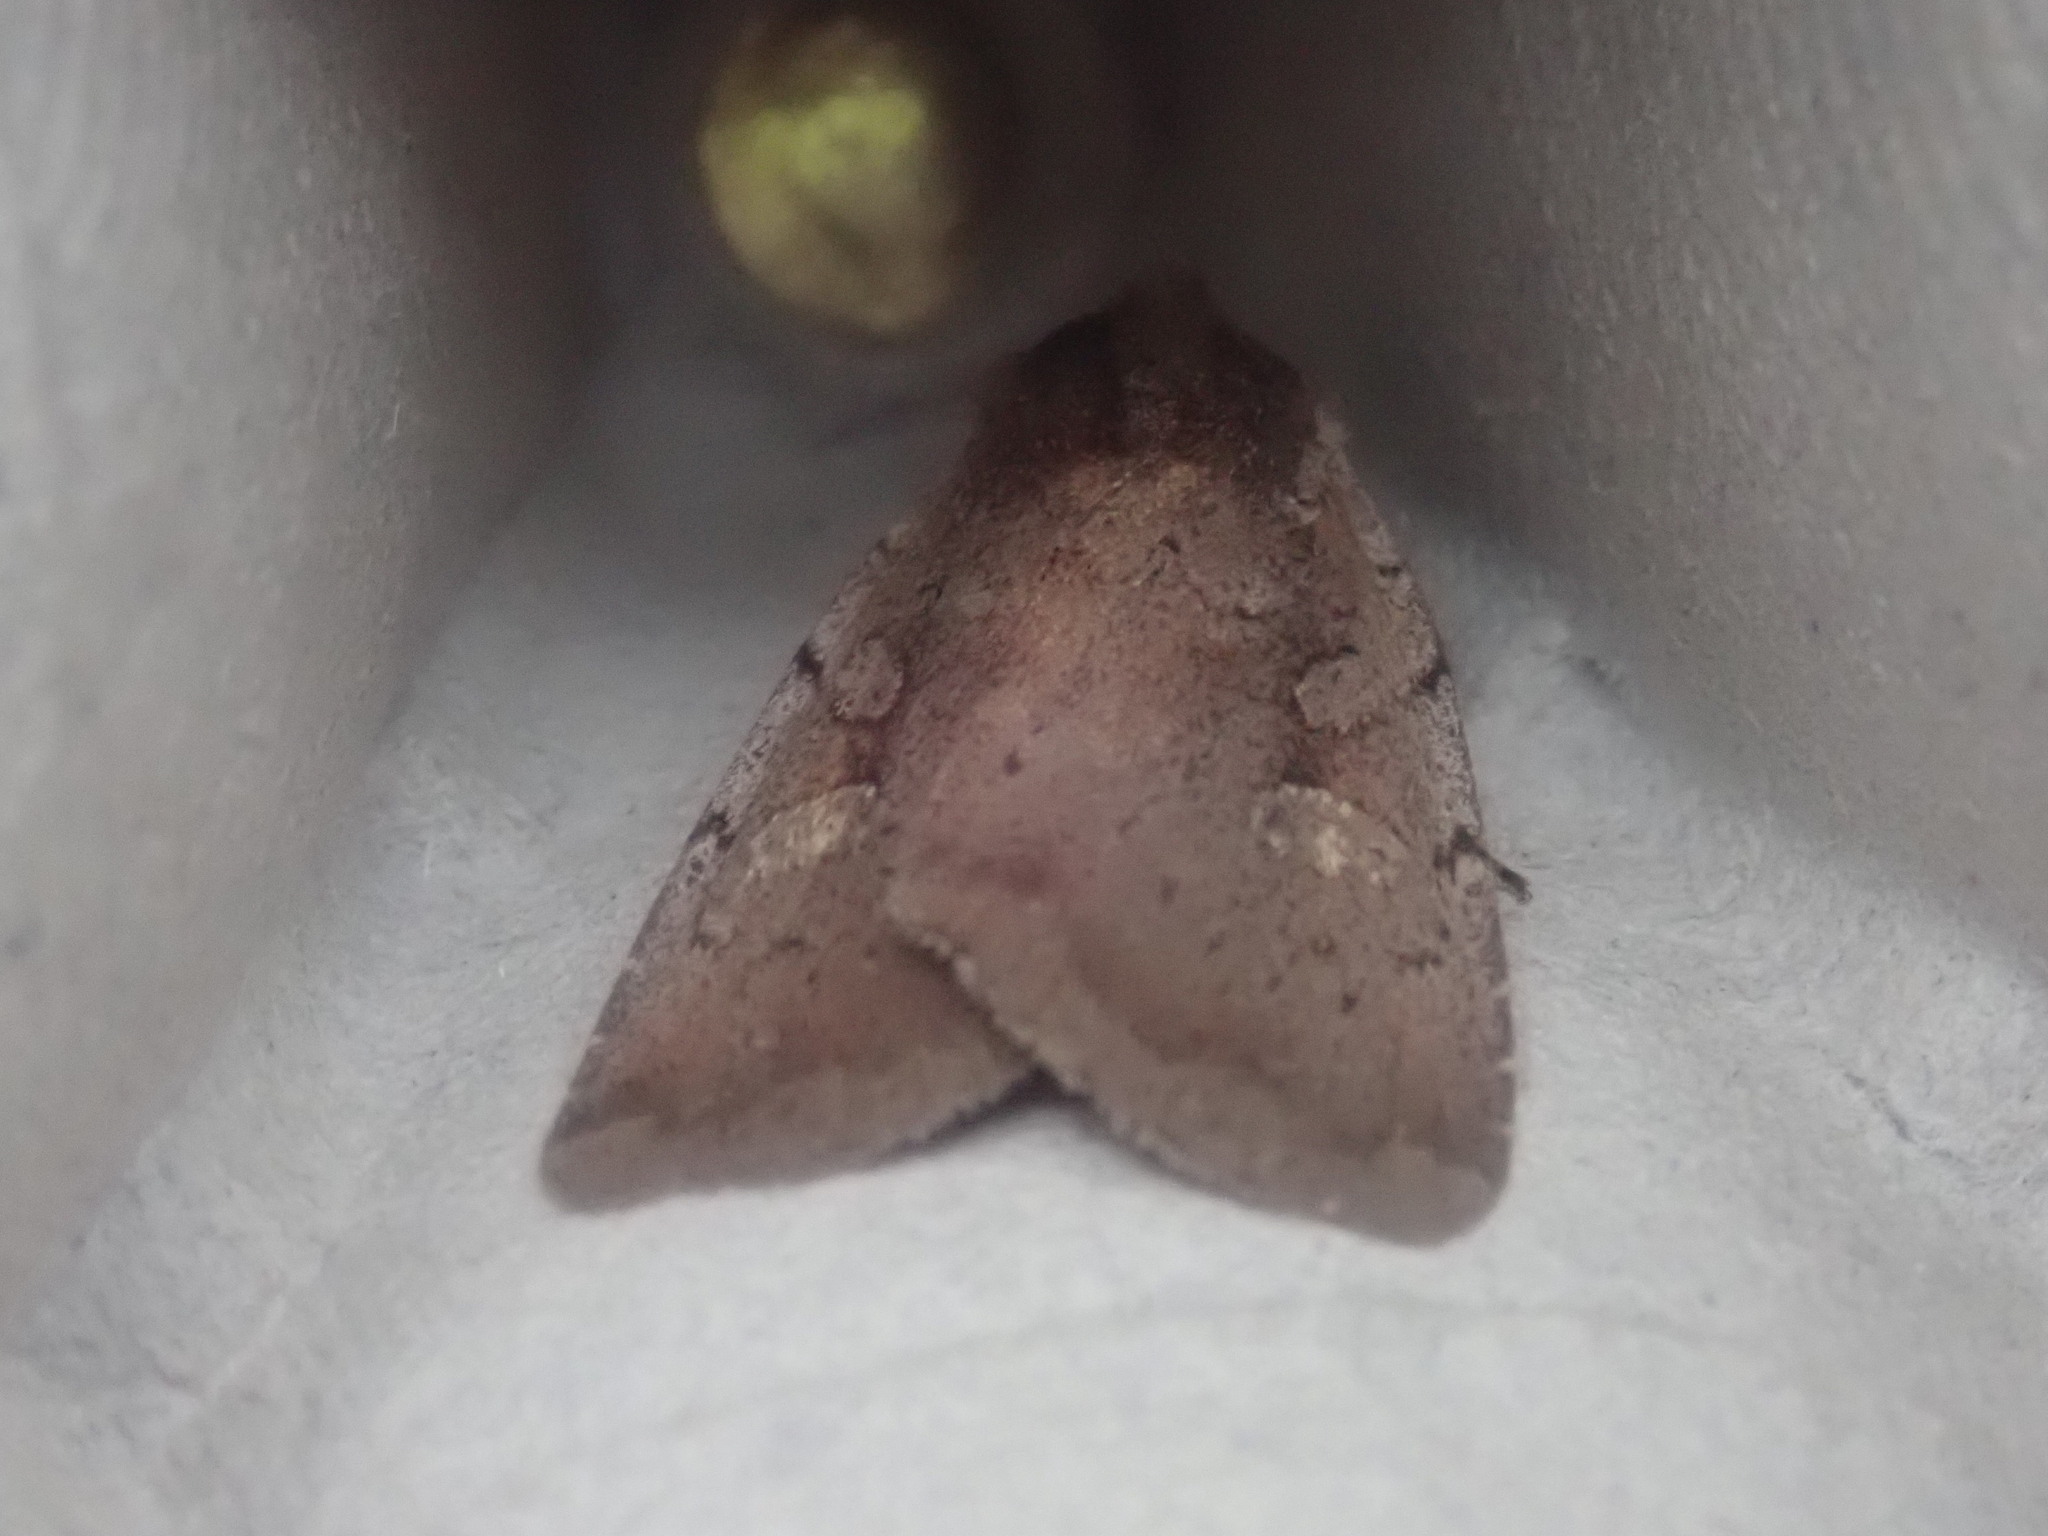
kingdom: Animalia
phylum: Arthropoda
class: Insecta
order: Lepidoptera
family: Noctuidae
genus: Xestia
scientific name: Xestia dilucida
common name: Dull reddish dart
